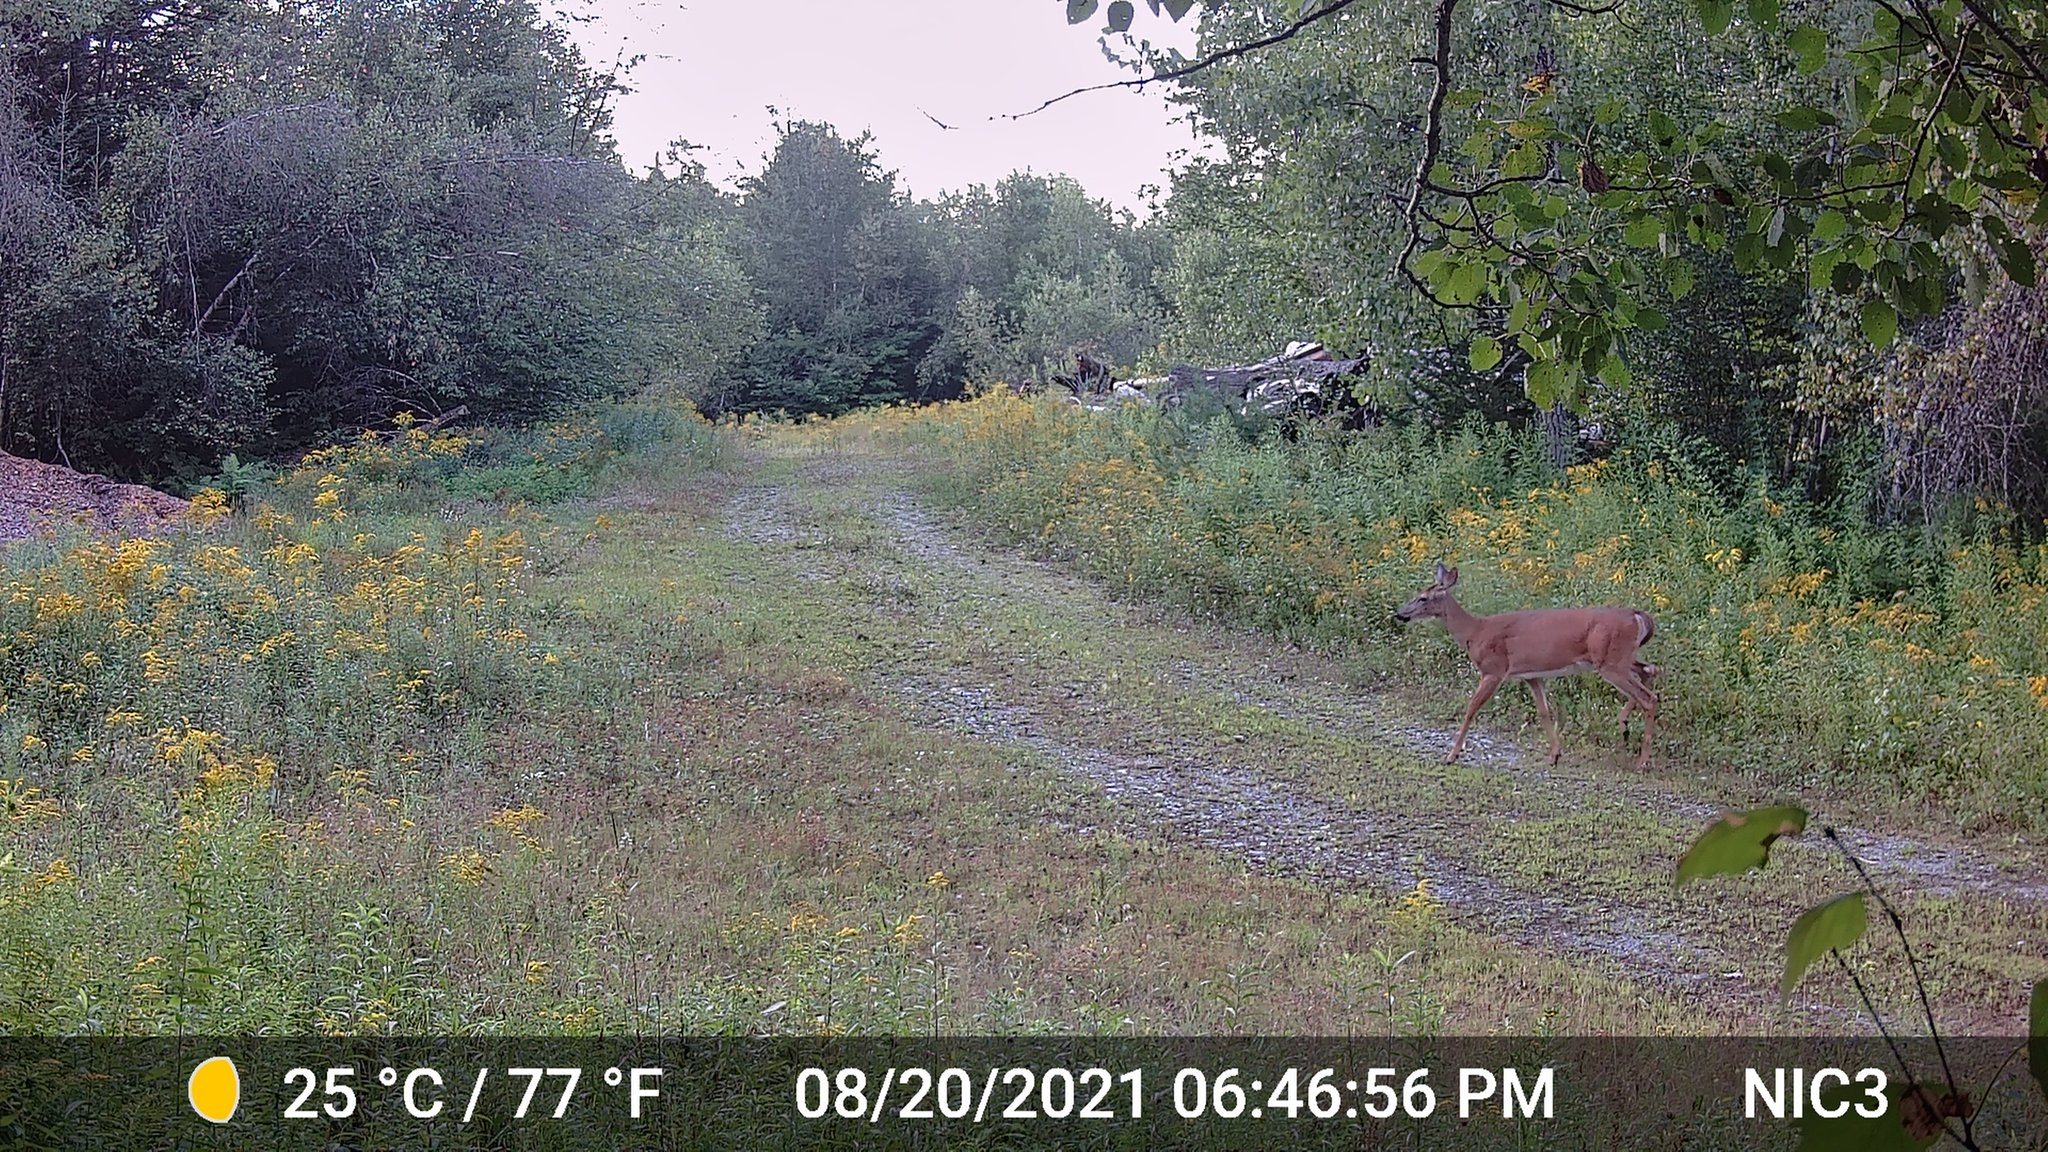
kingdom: Animalia
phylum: Chordata
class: Mammalia
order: Artiodactyla
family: Cervidae
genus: Odocoileus
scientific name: Odocoileus virginianus
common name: White-tailed deer
